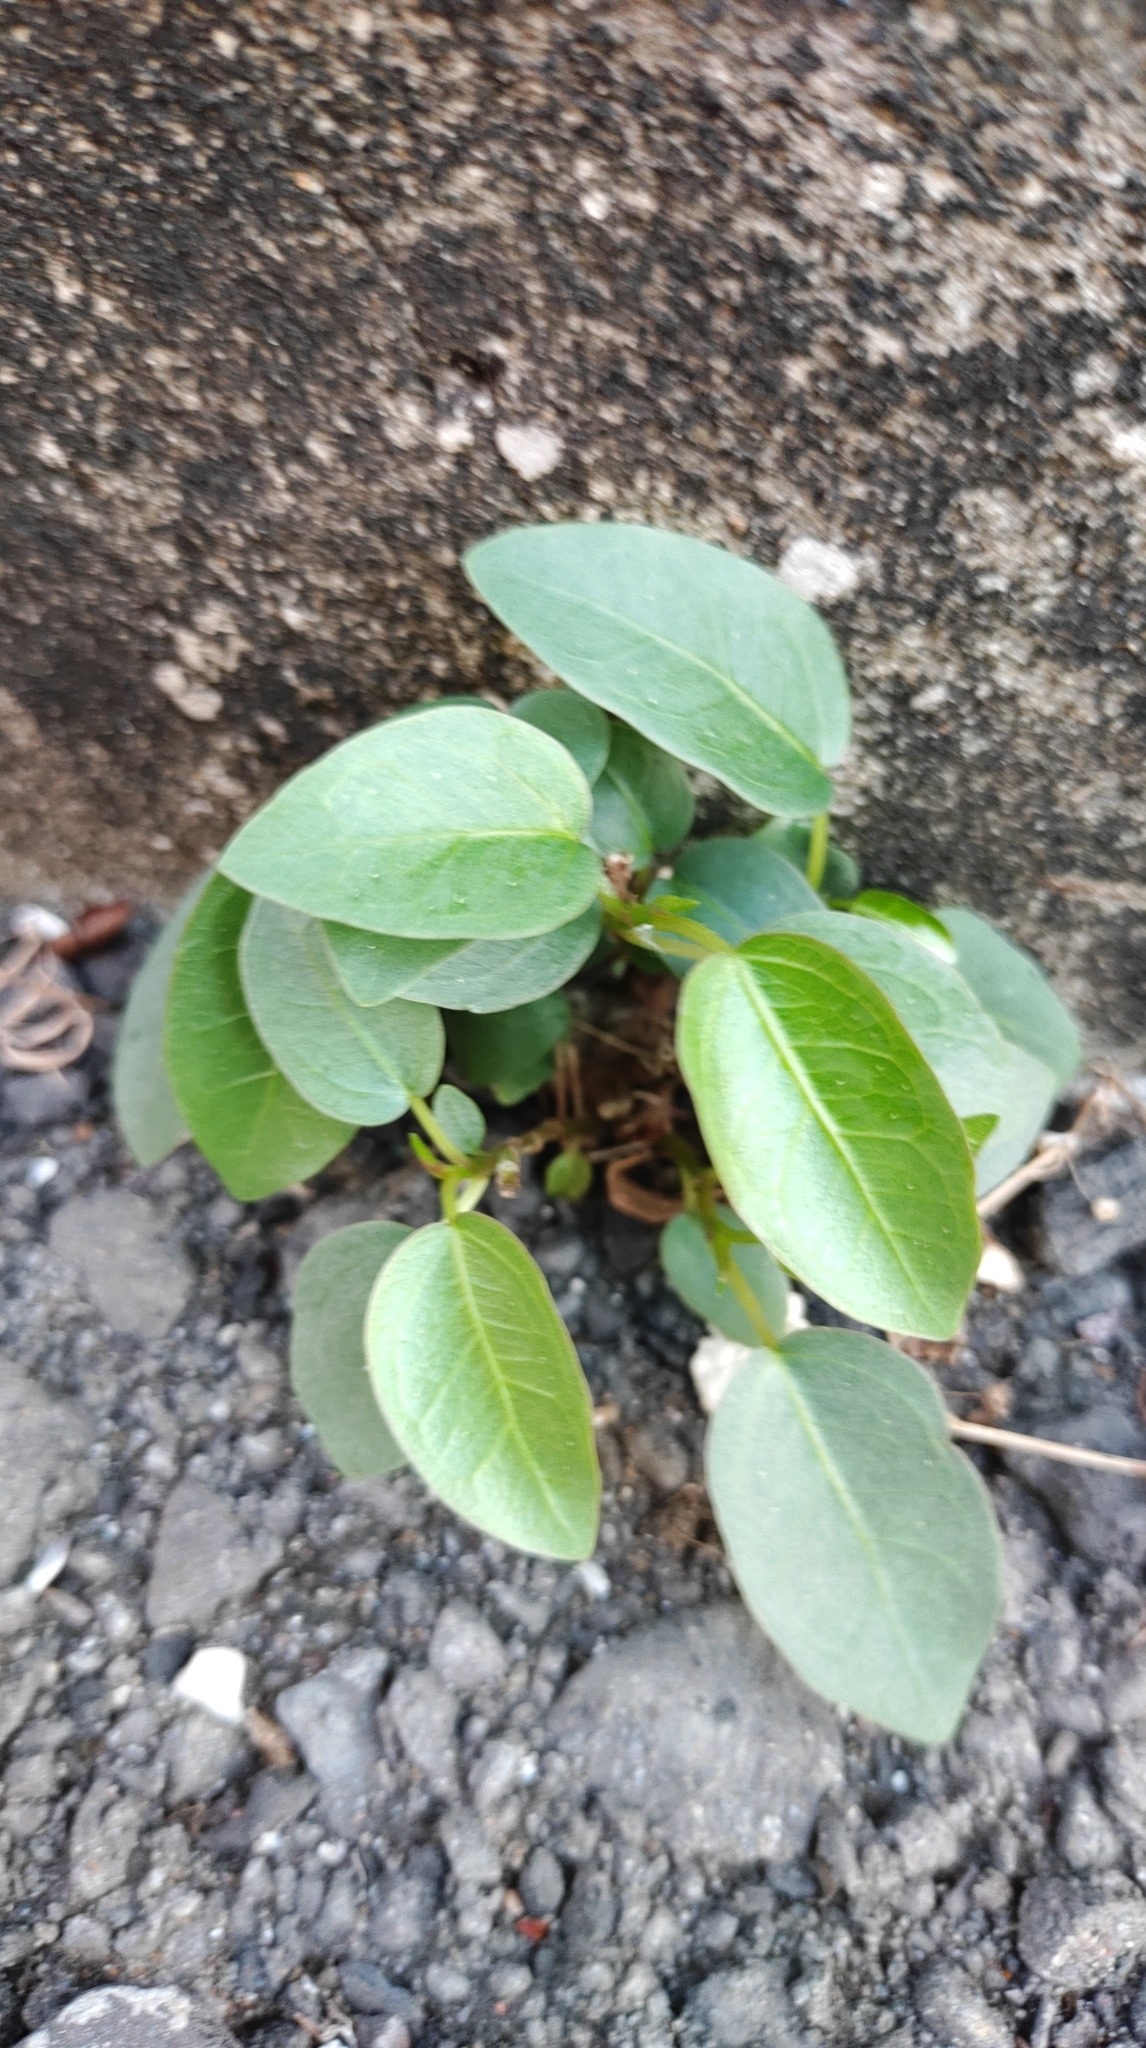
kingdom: Plantae
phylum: Tracheophyta
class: Magnoliopsida
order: Rosales
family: Moraceae
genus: Ficus
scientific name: Ficus subpisocarpa
